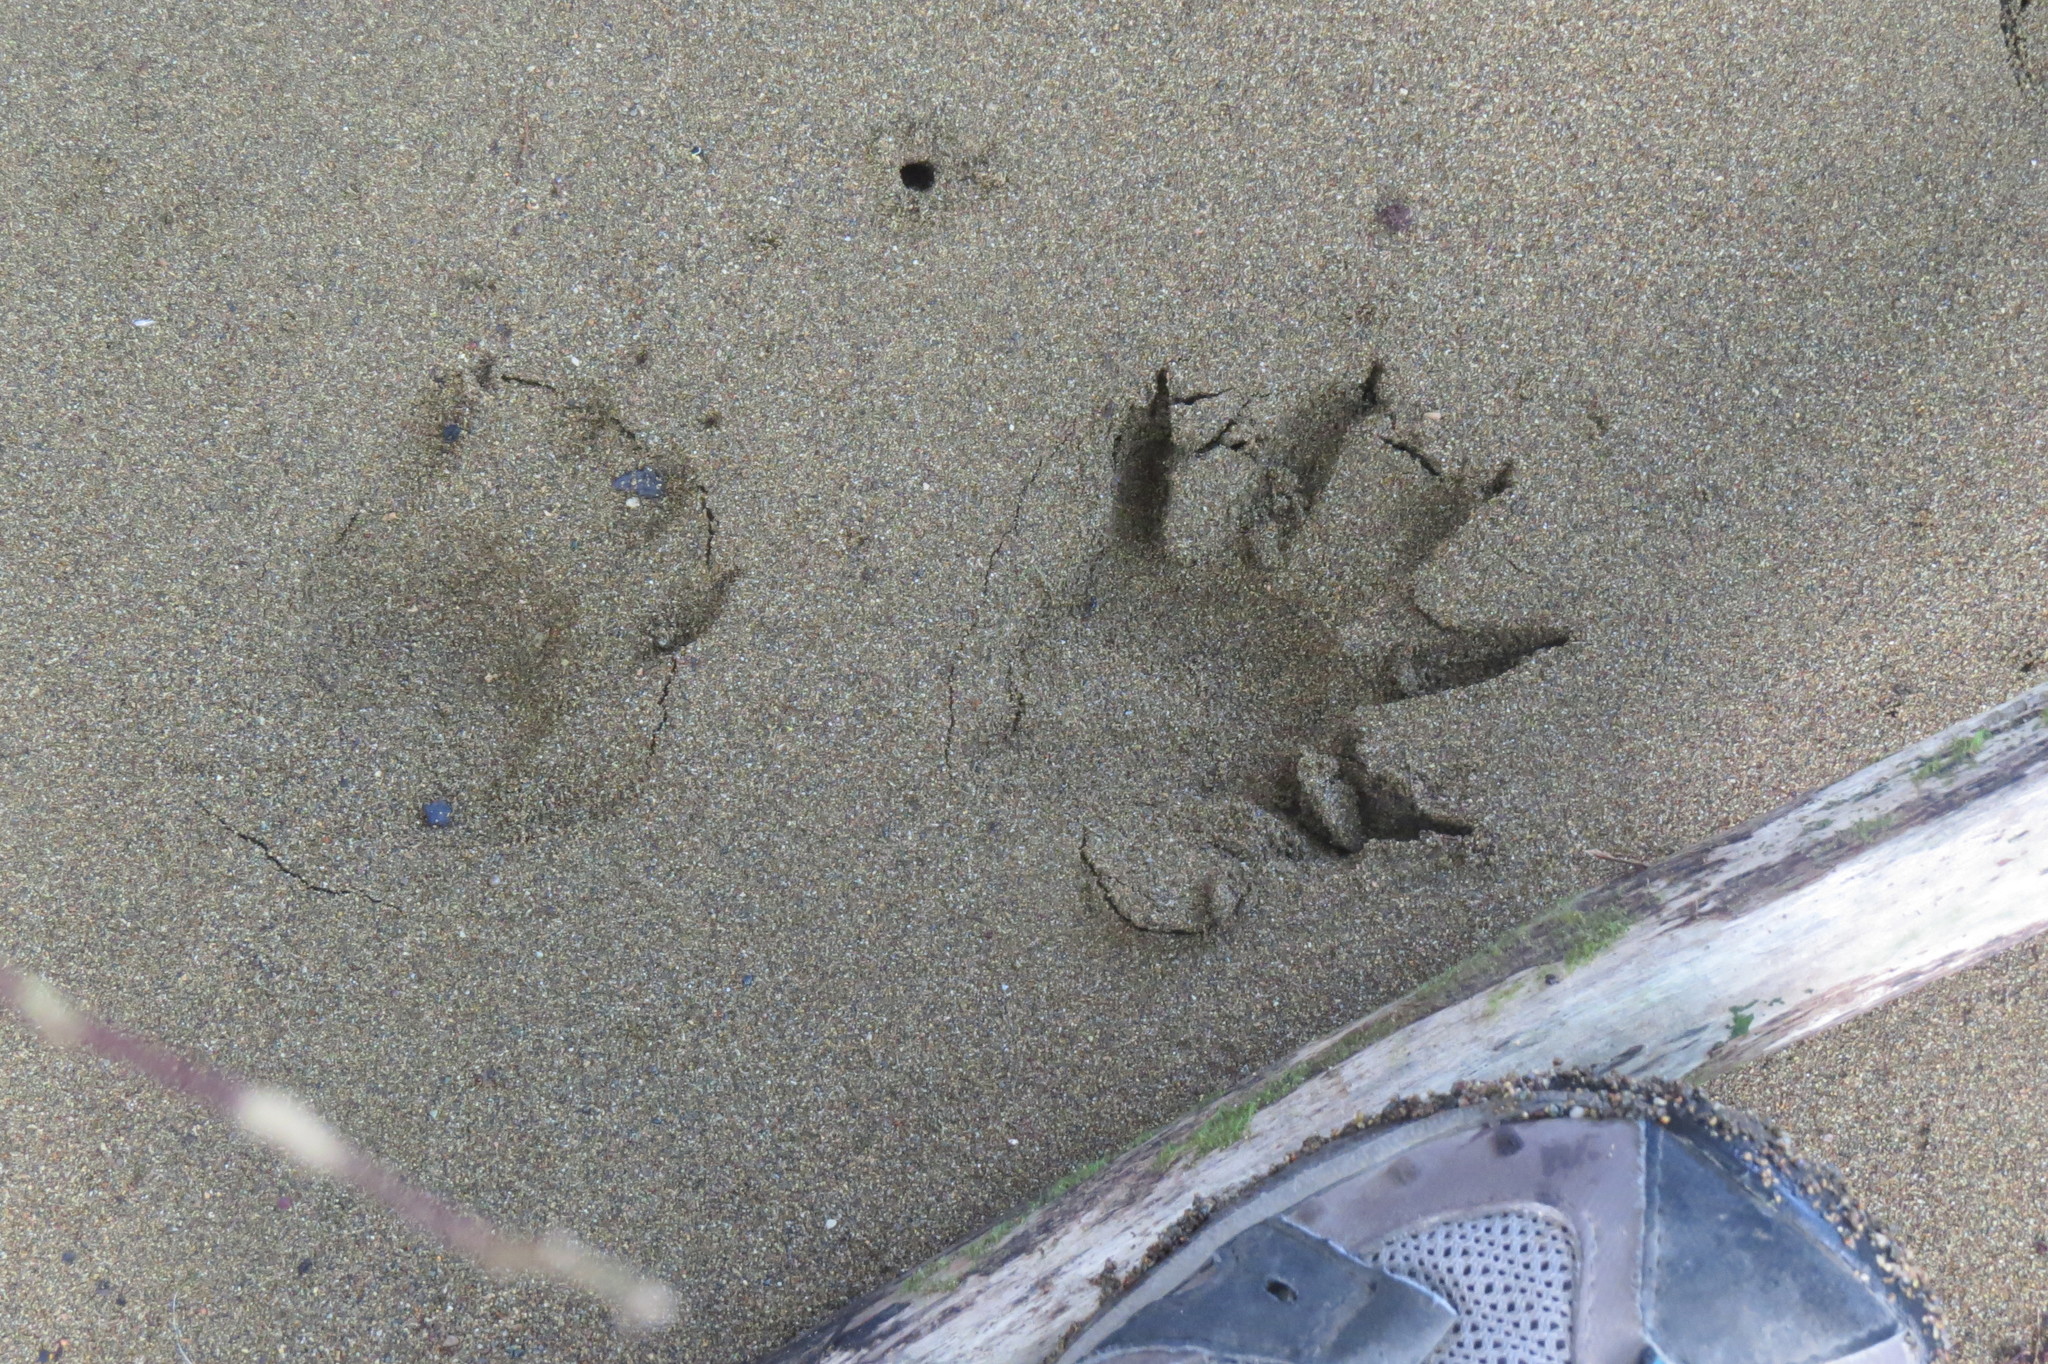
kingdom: Animalia
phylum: Chordata
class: Mammalia
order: Carnivora
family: Procyonidae
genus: Procyon
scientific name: Procyon lotor
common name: Raccoon
